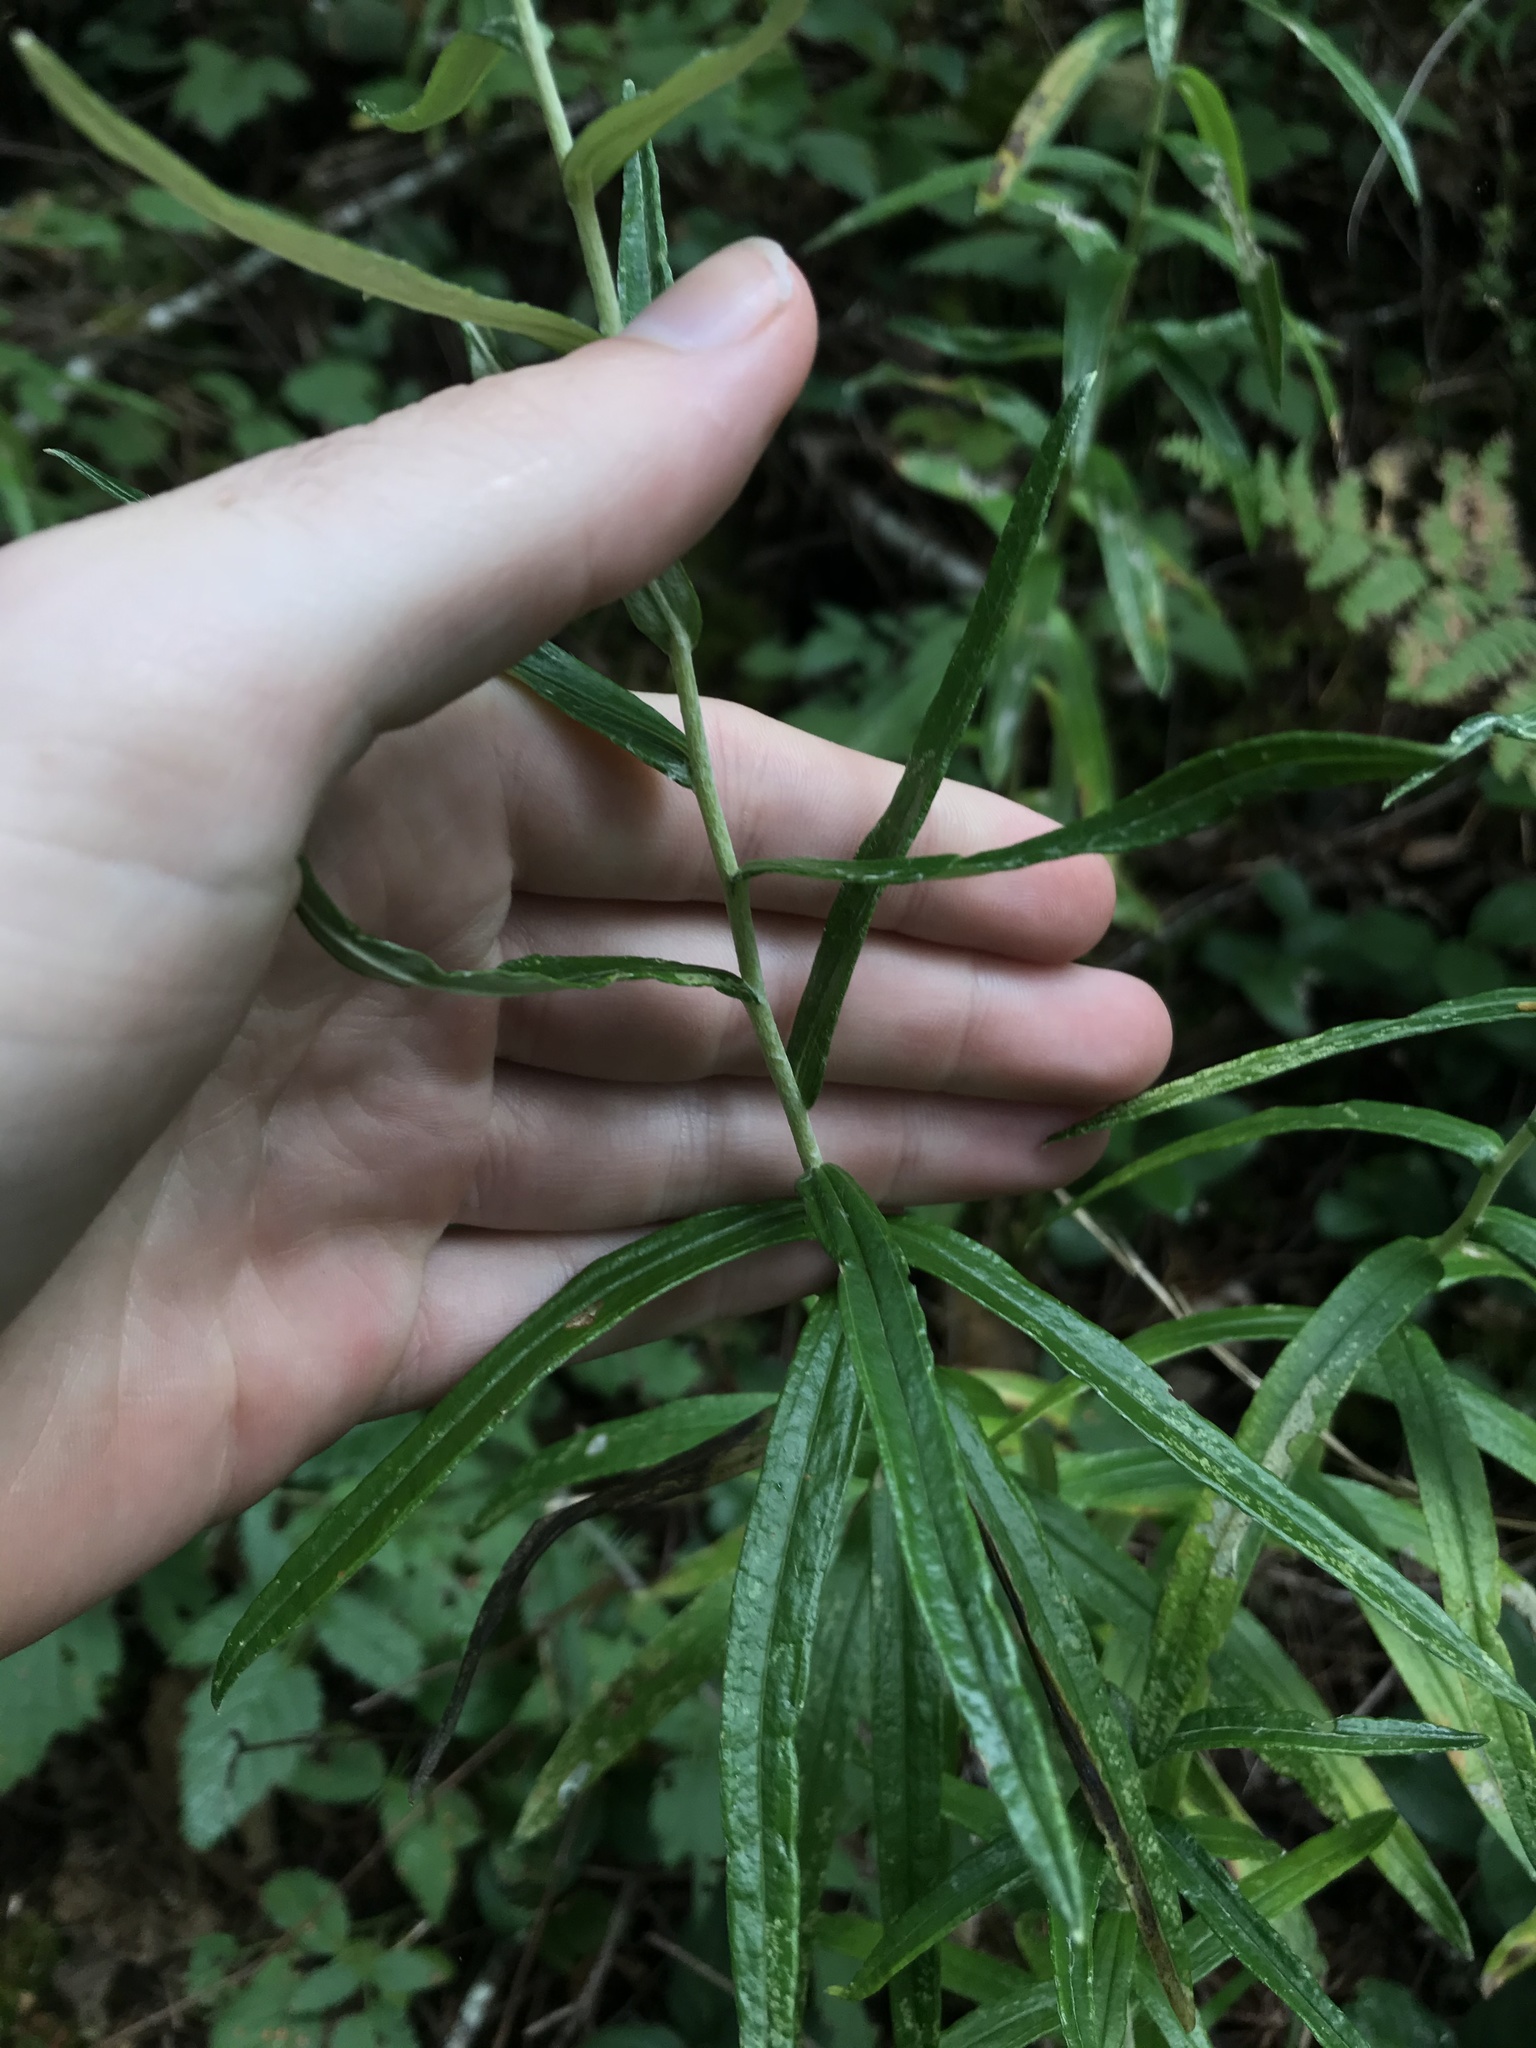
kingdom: Plantae
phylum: Tracheophyta
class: Magnoliopsida
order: Asterales
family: Asteraceae
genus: Anaphalis
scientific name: Anaphalis margaritacea
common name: Pearly everlasting
